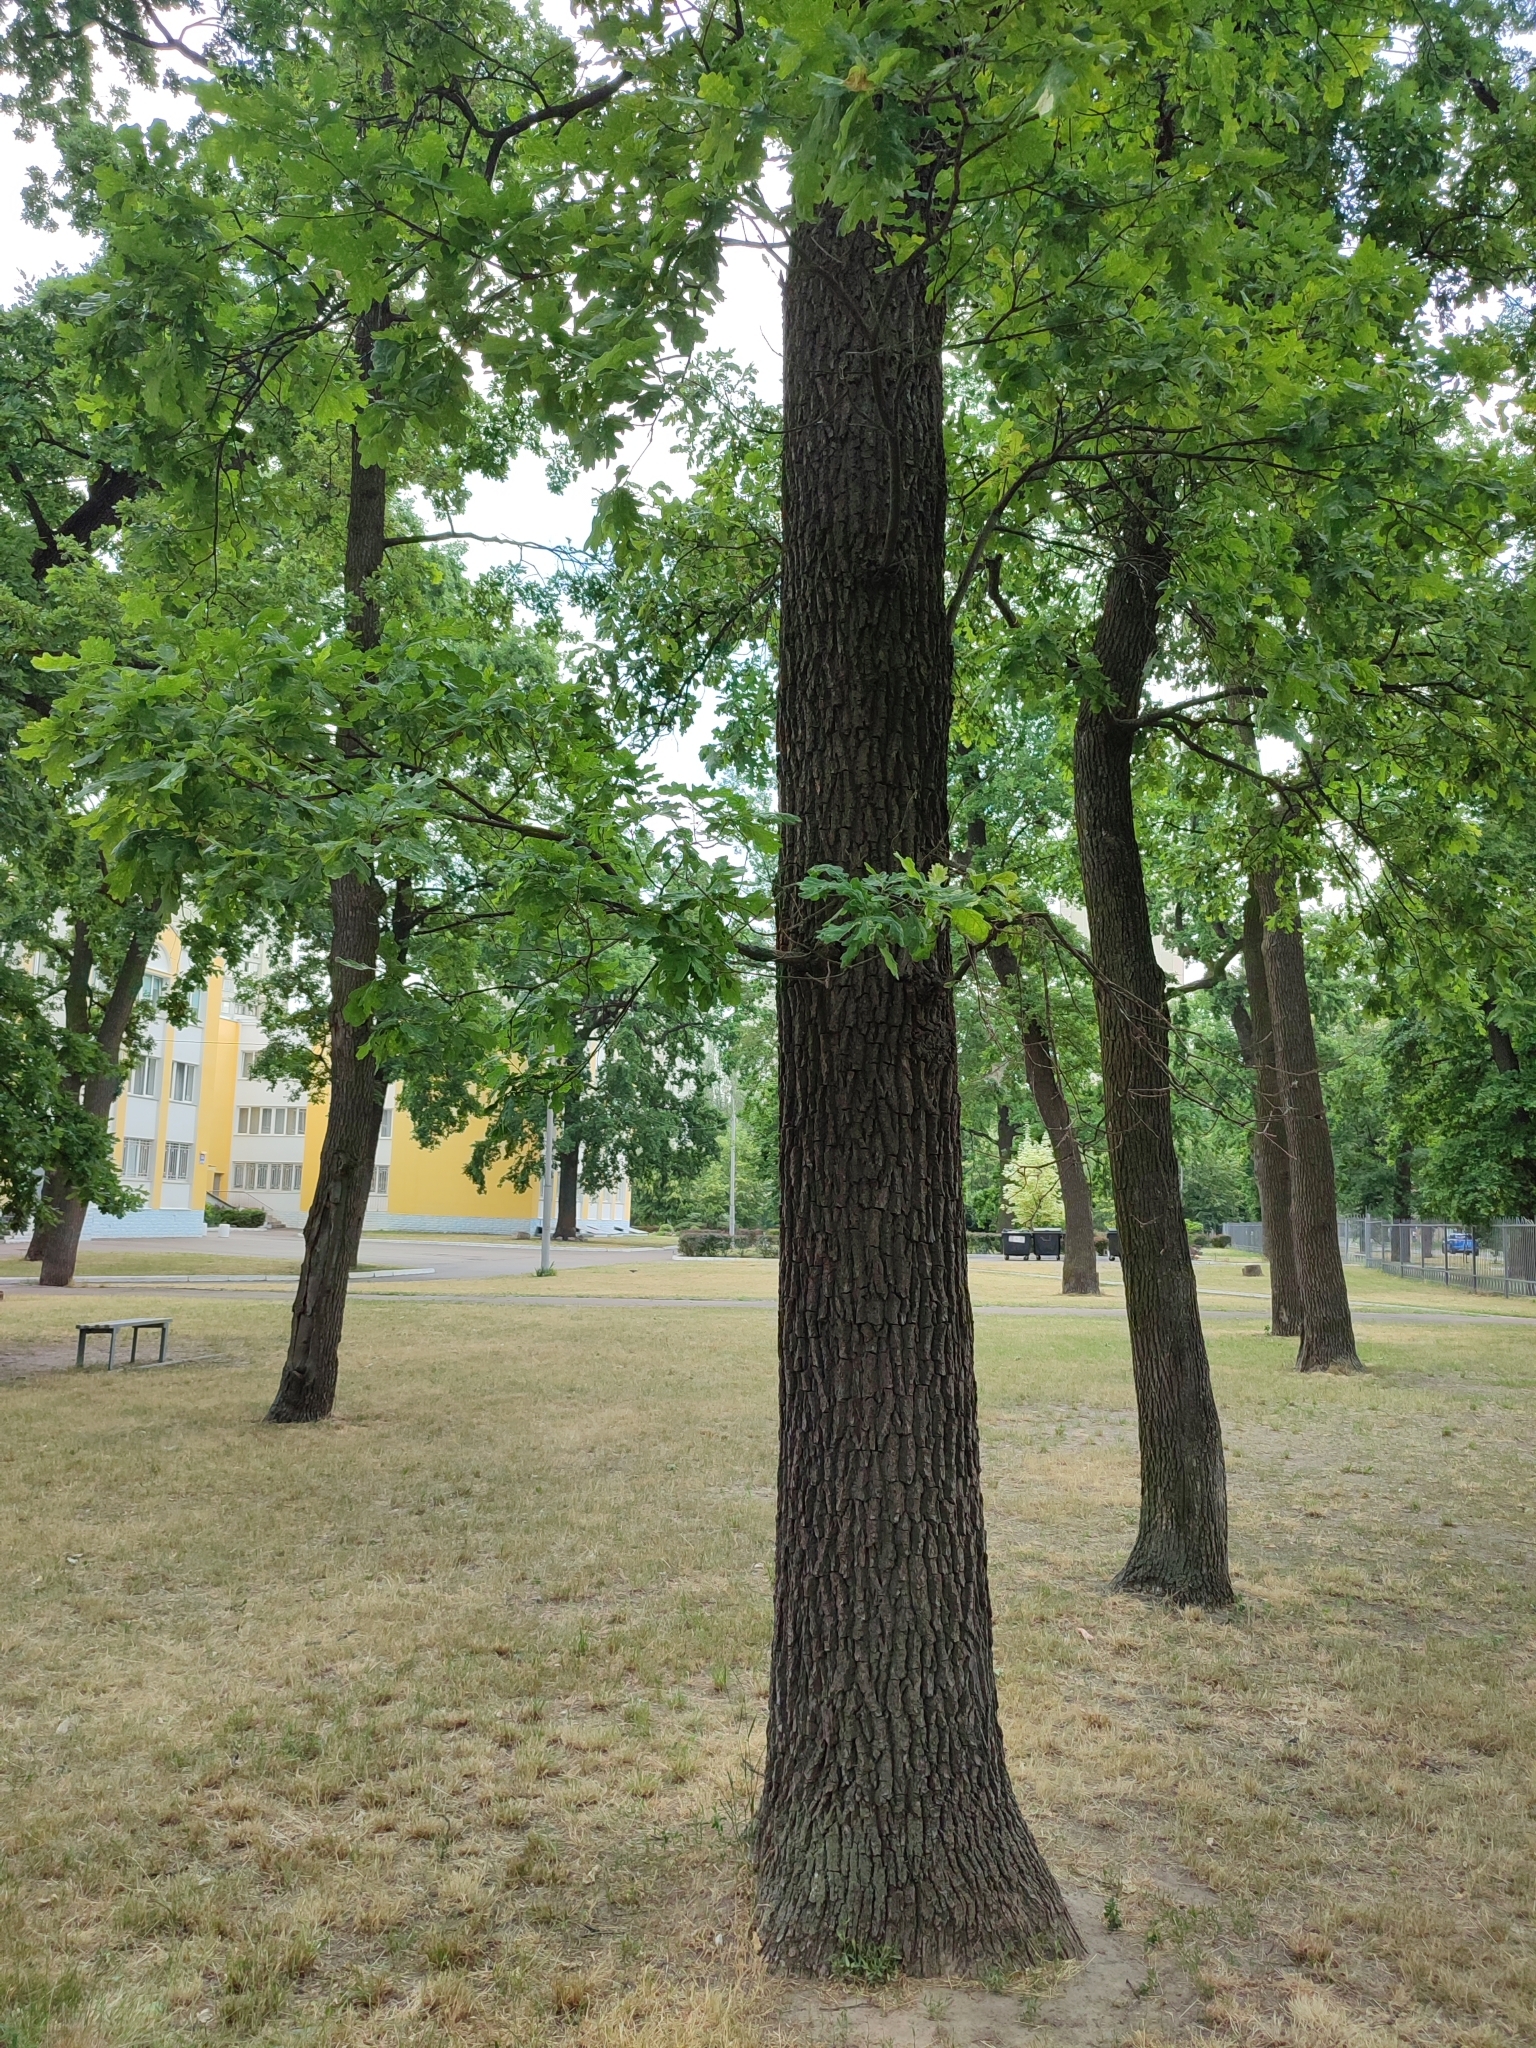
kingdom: Plantae
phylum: Tracheophyta
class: Magnoliopsida
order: Fagales
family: Fagaceae
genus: Quercus
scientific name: Quercus robur
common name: Pedunculate oak
